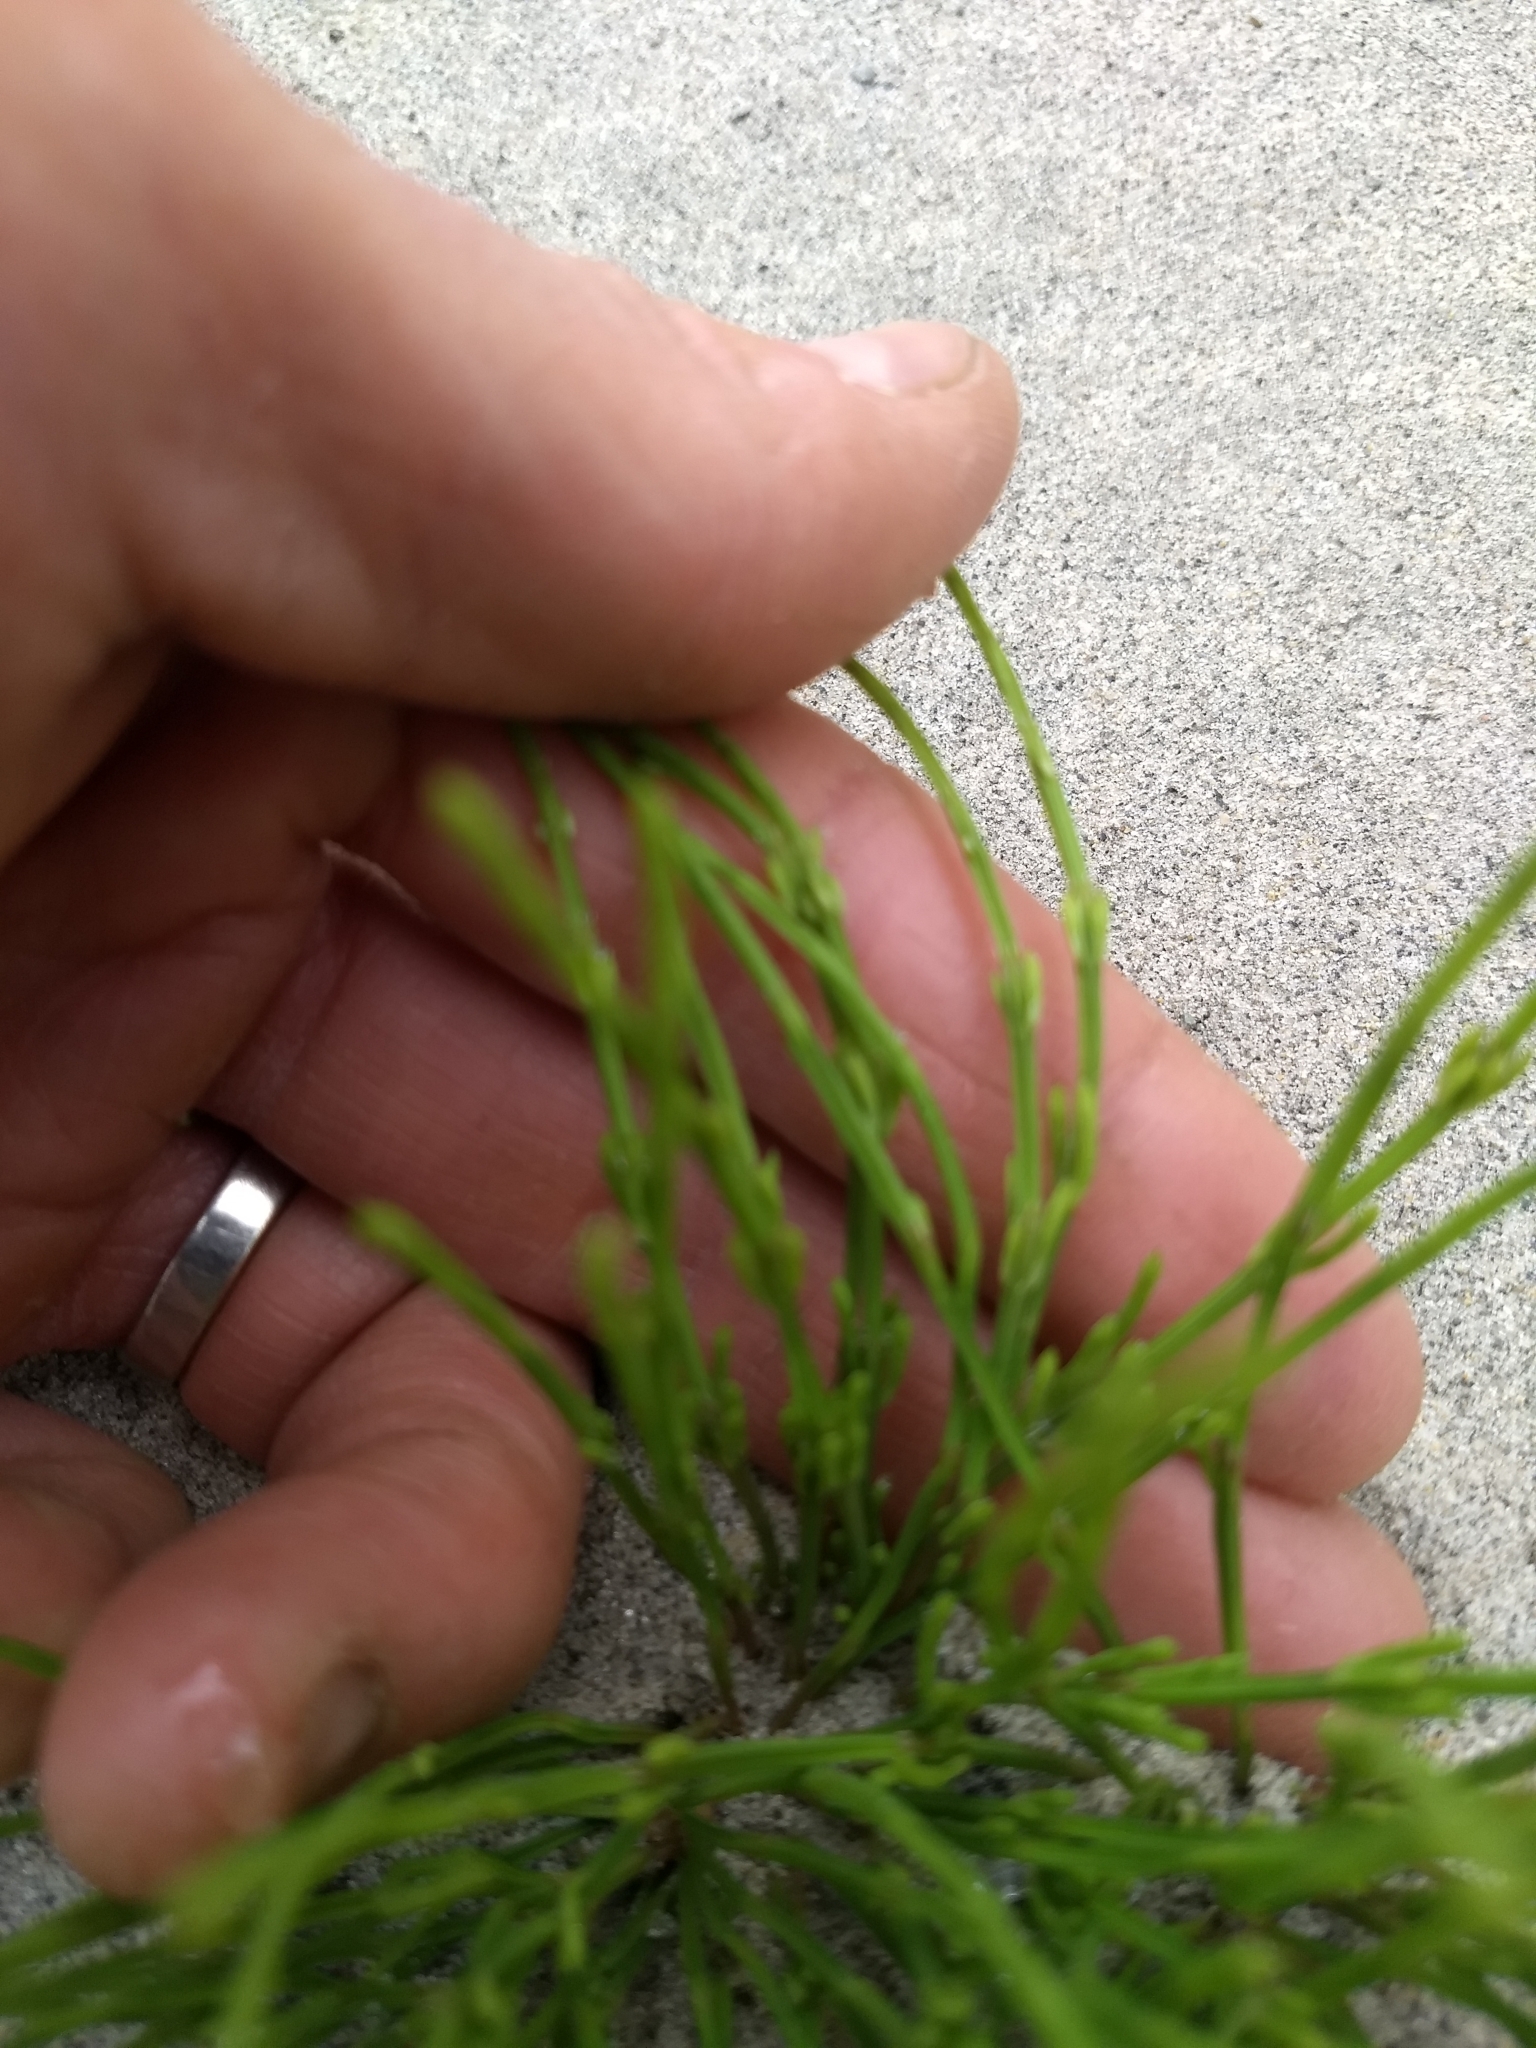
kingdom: Plantae
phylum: Tracheophyta
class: Polypodiopsida
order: Equisetales
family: Equisetaceae
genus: Equisetum
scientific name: Equisetum arvense
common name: Field horsetail
